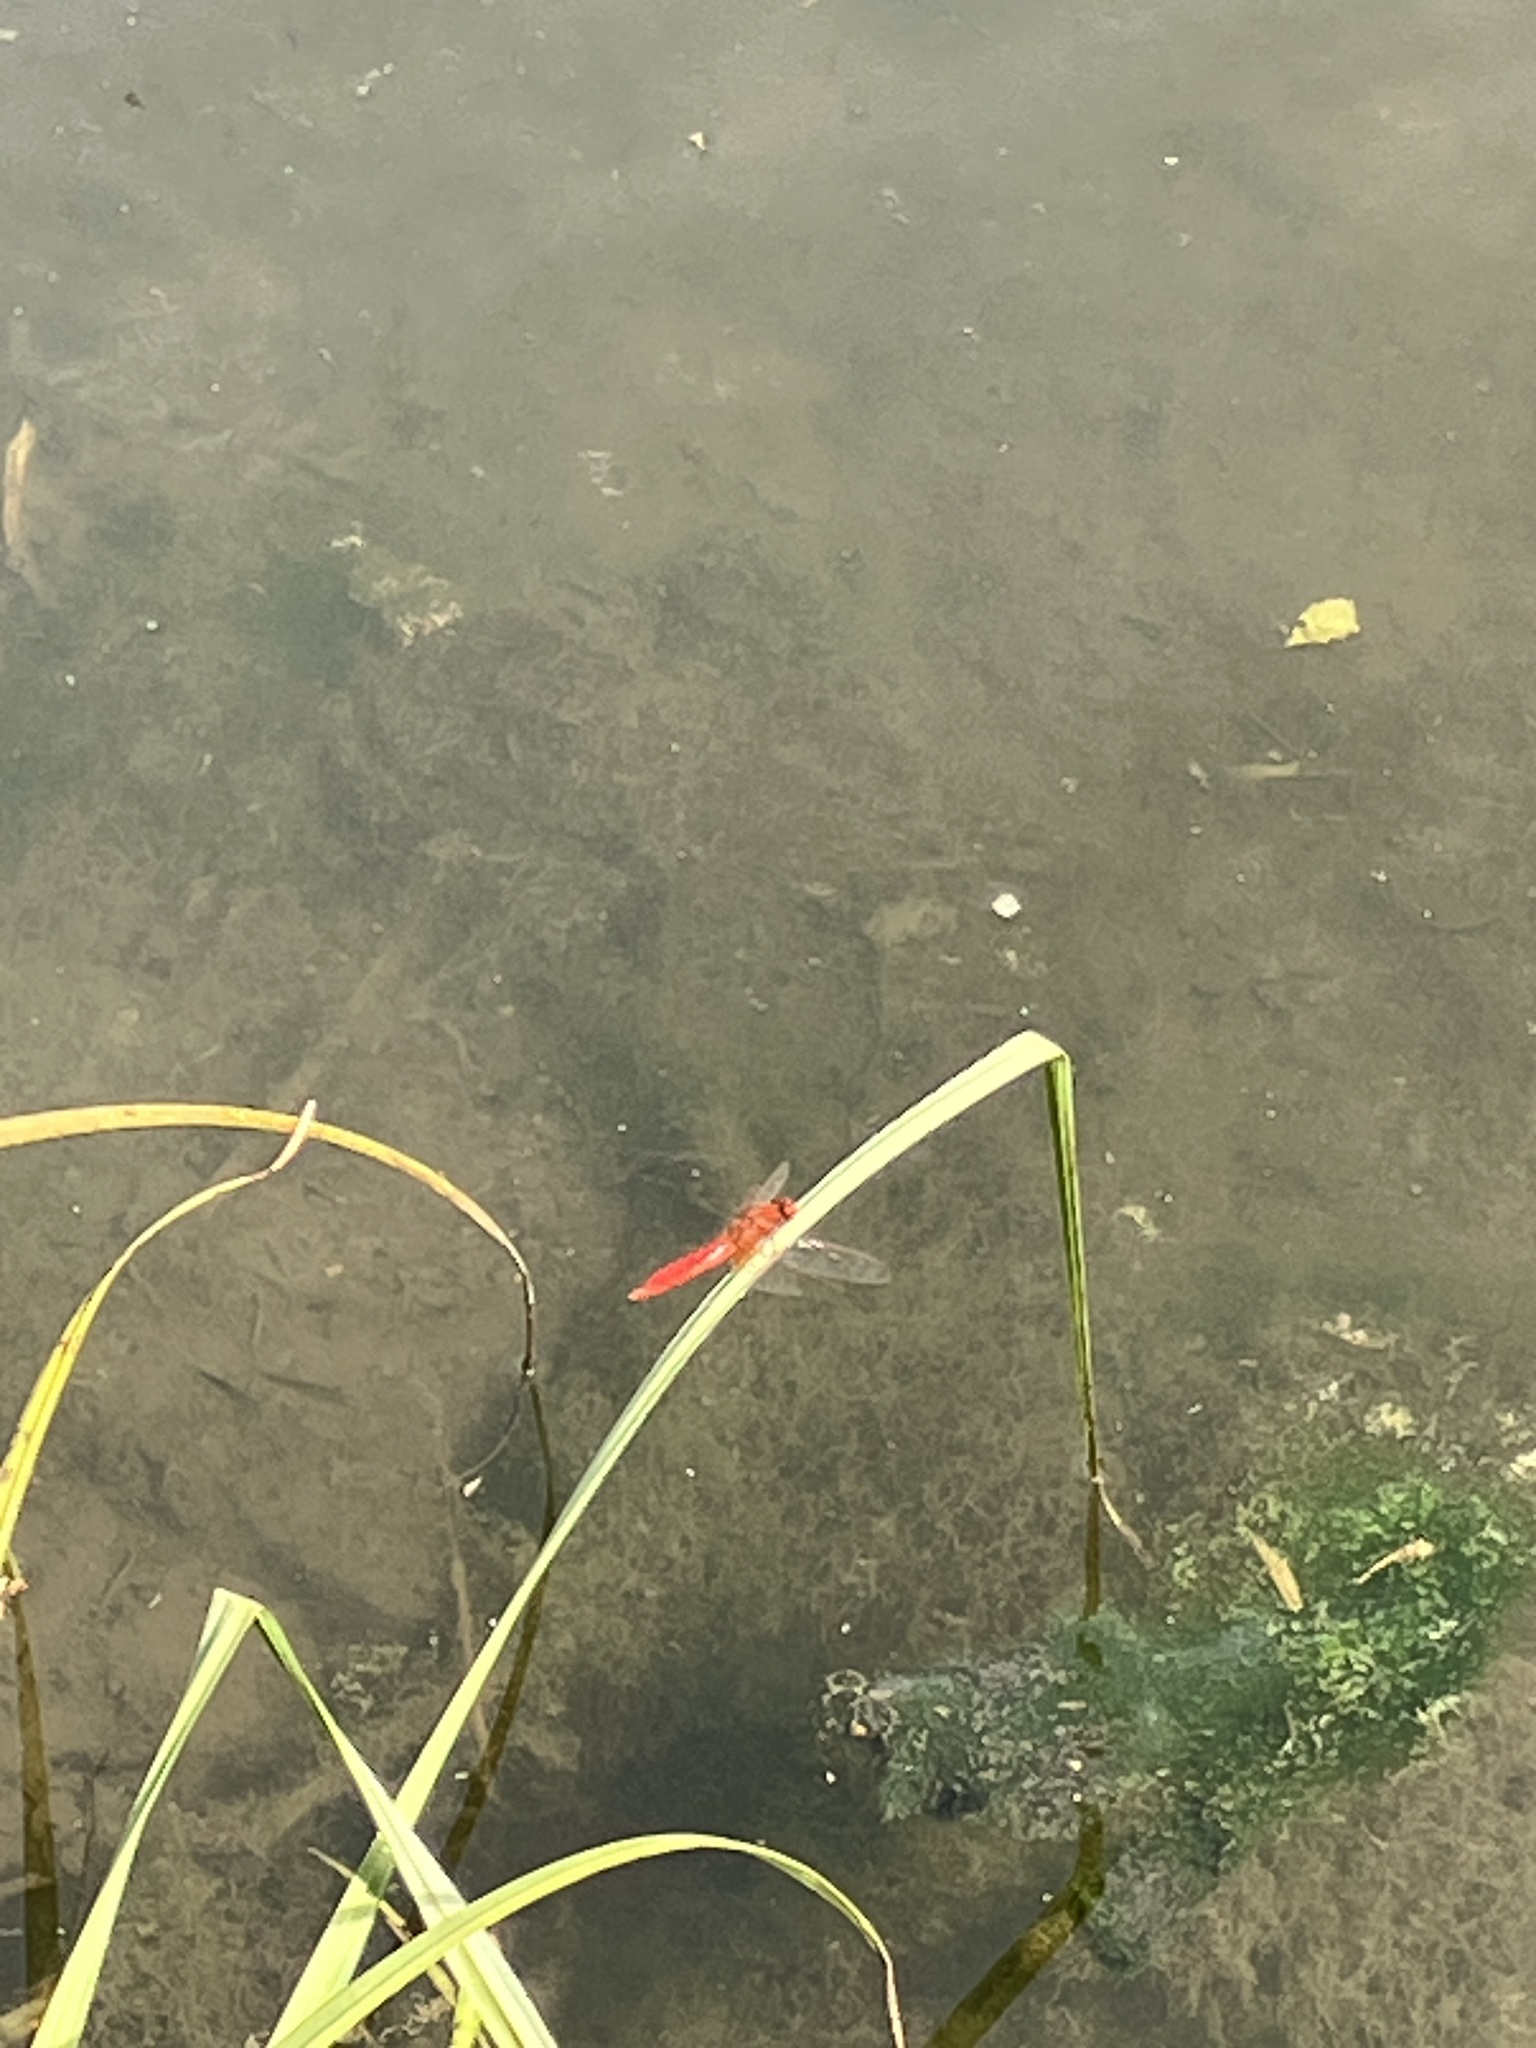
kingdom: Animalia
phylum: Arthropoda
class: Insecta
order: Odonata
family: Libellulidae
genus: Crocothemis
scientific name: Crocothemis erythraea
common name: Scarlet dragonfly
